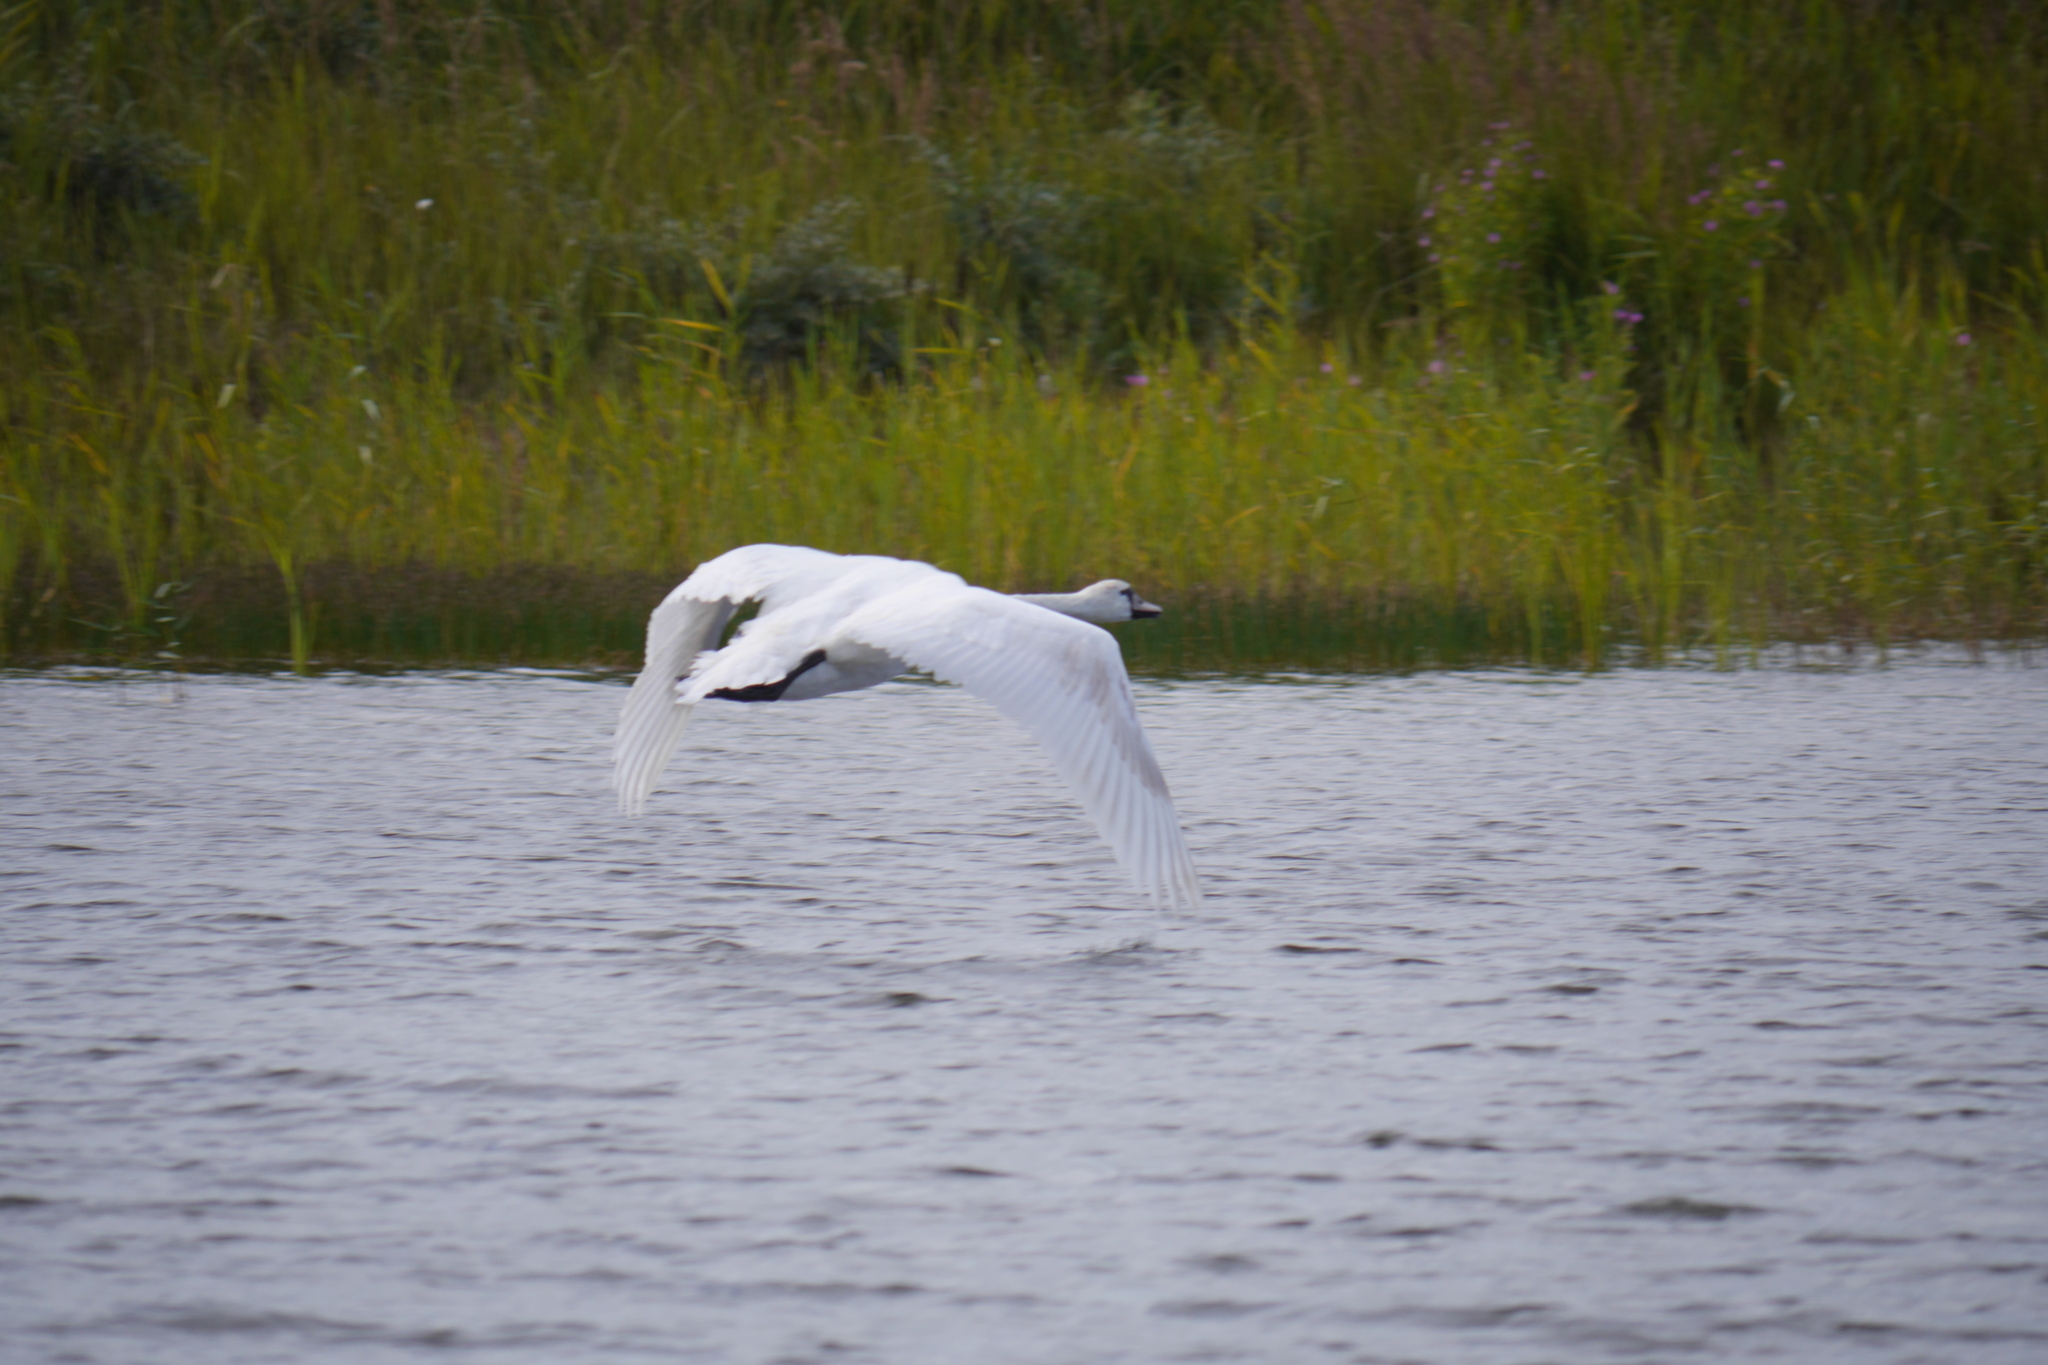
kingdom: Animalia
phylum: Chordata
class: Aves
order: Anseriformes
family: Anatidae
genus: Cygnus
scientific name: Cygnus olor
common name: Mute swan
